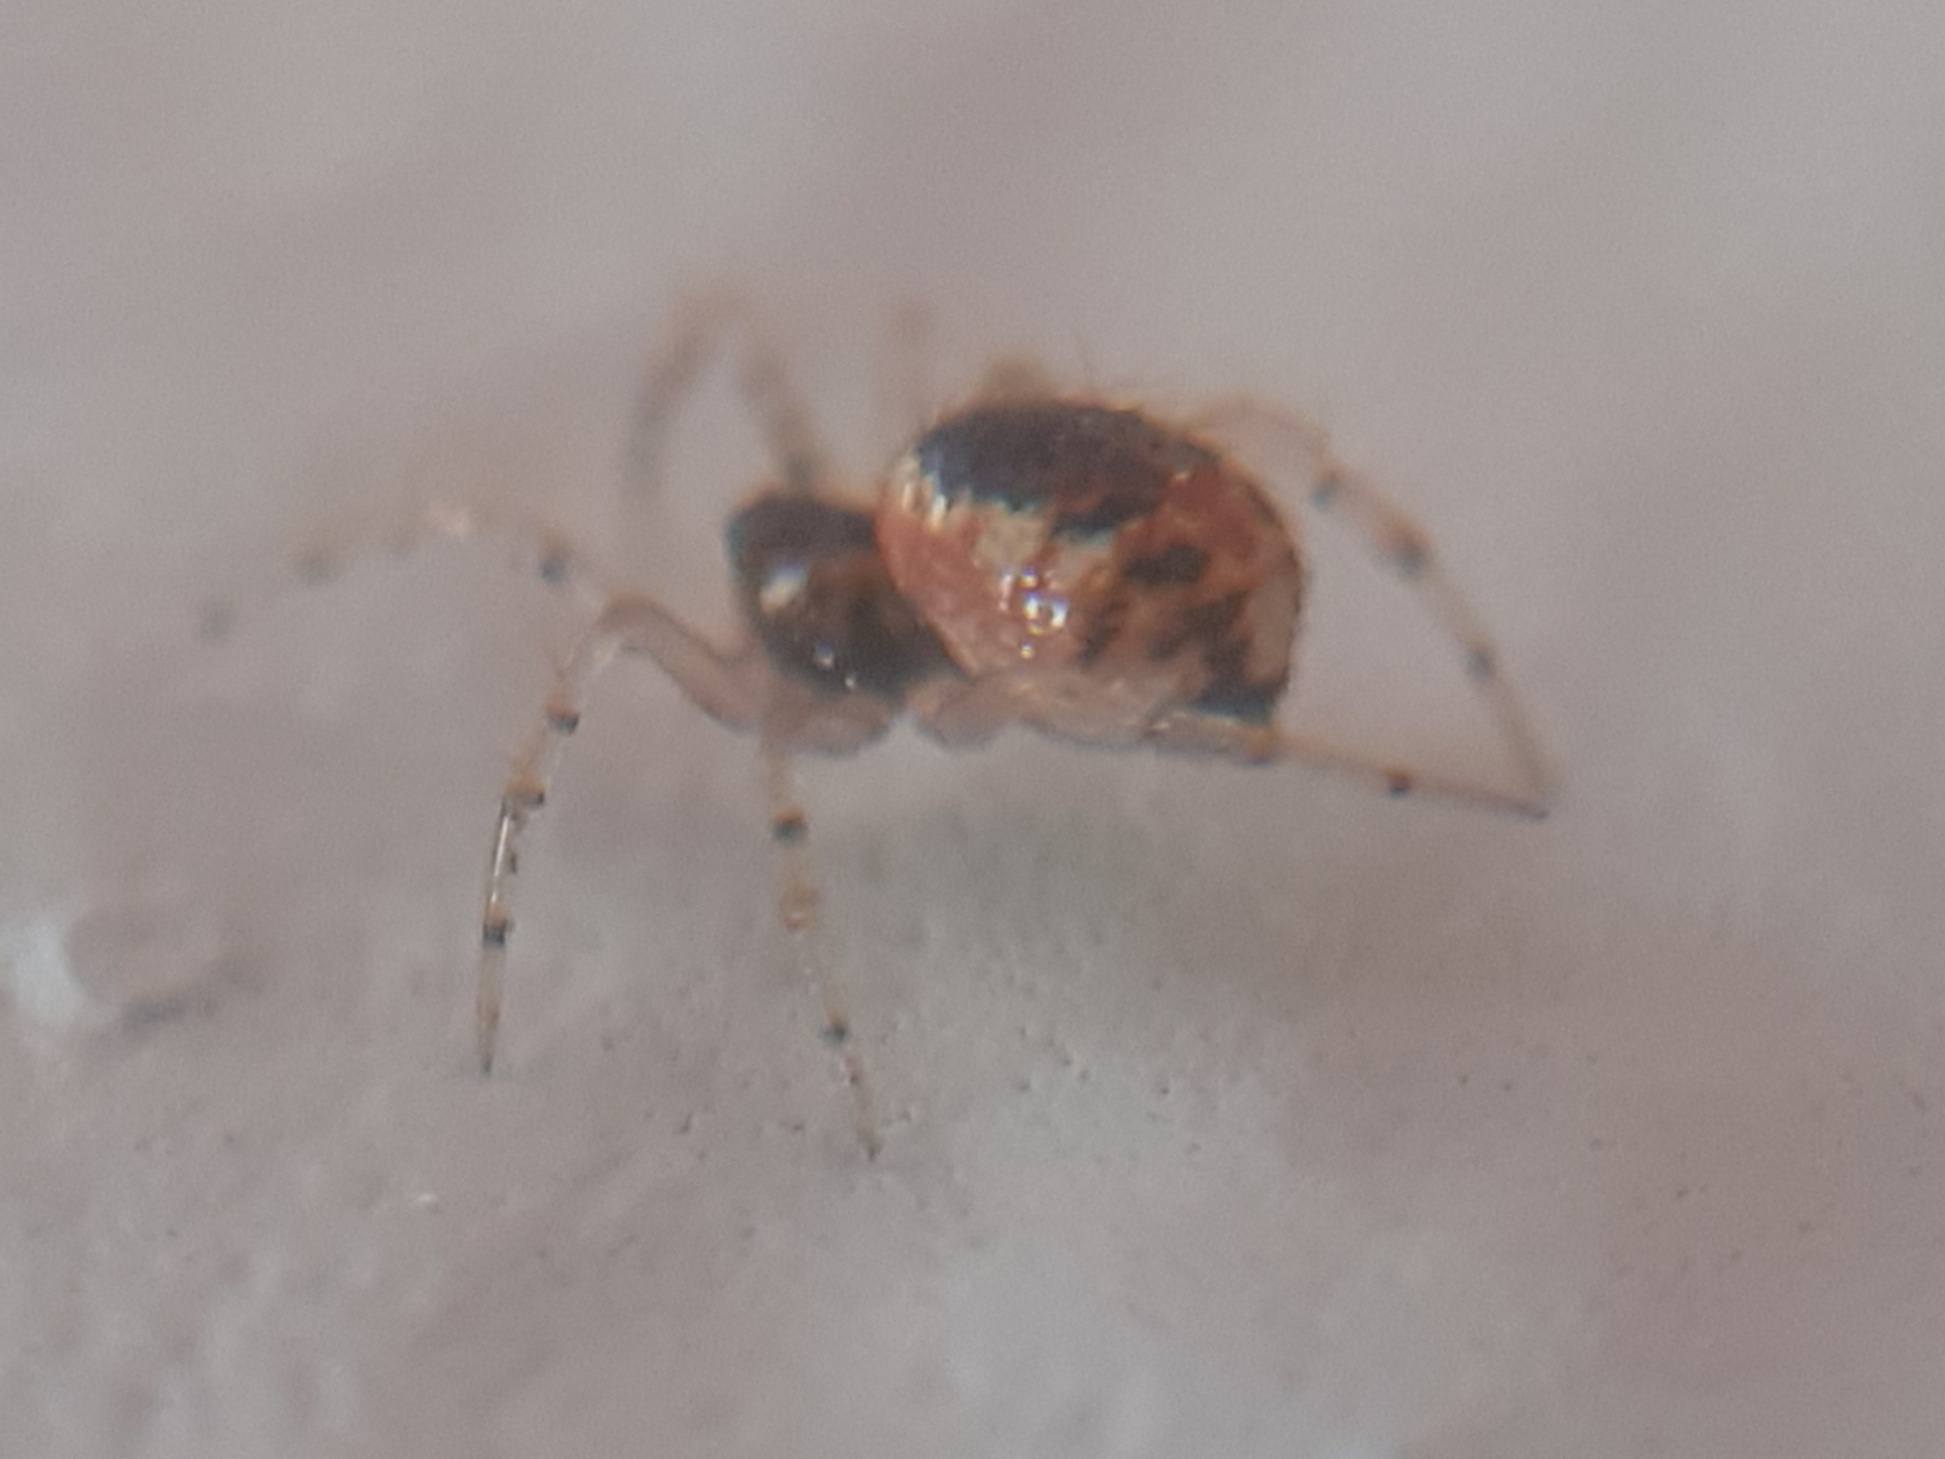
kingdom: Animalia
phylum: Arthropoda
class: Arachnida
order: Araneae
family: Theridiidae
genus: Sardinidion
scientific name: Sardinidion blackwalli
